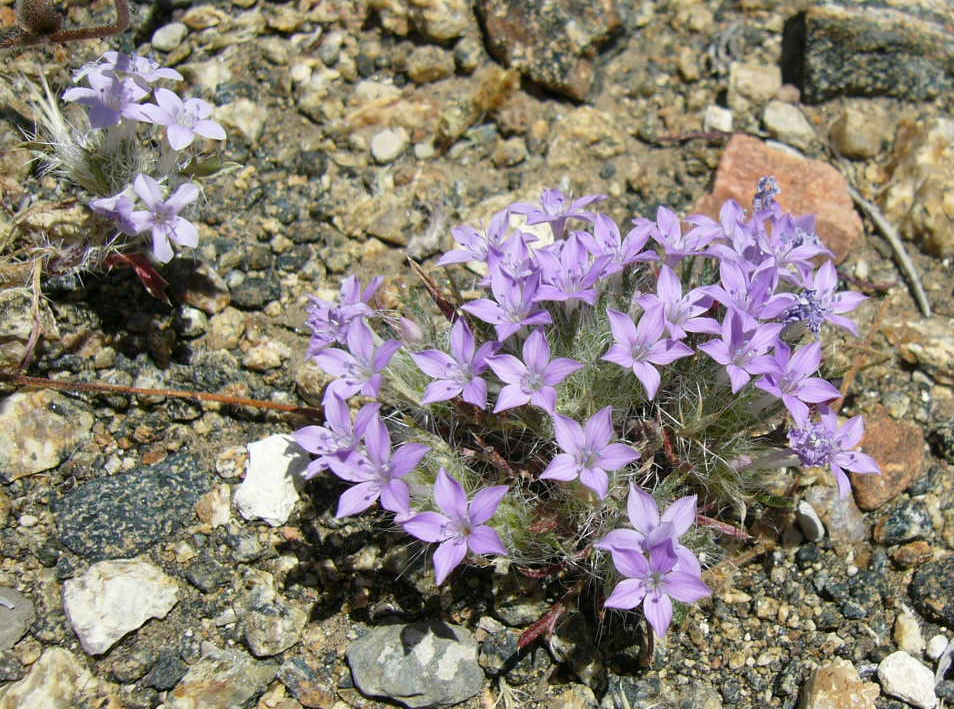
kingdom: Plantae
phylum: Tracheophyta
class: Magnoliopsida
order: Ericales
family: Polemoniaceae
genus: Langloisia
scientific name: Langloisia setosissima
